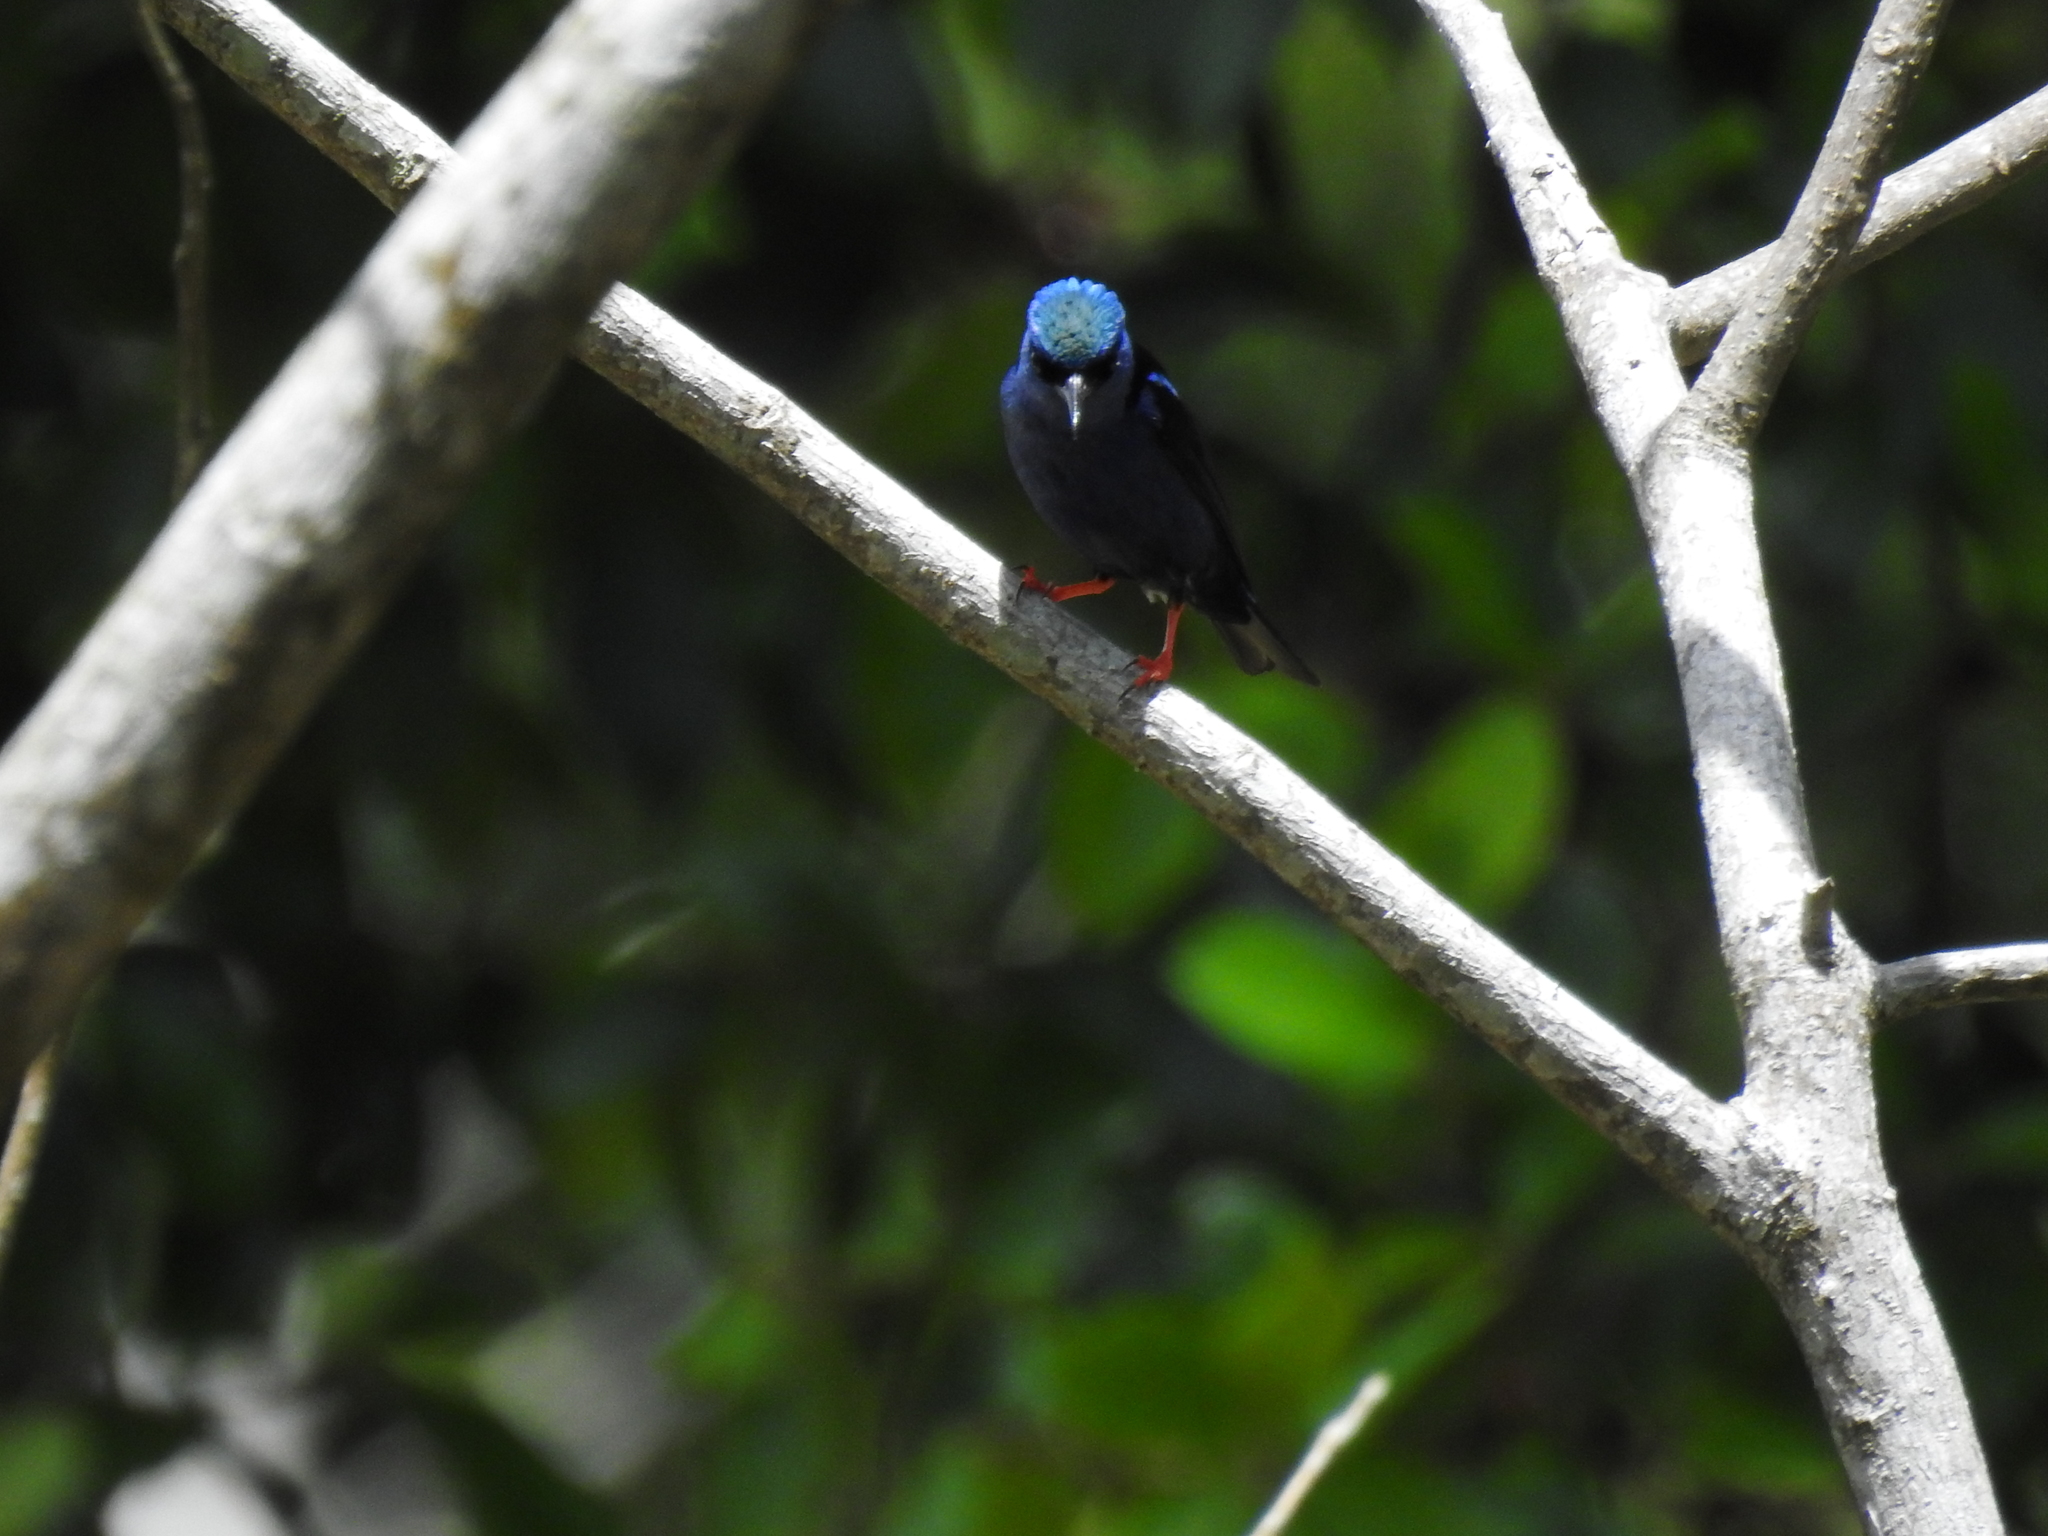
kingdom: Animalia
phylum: Chordata
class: Aves
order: Passeriformes
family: Thraupidae
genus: Cyanerpes
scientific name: Cyanerpes cyaneus
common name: Red-legged honeycreeper
